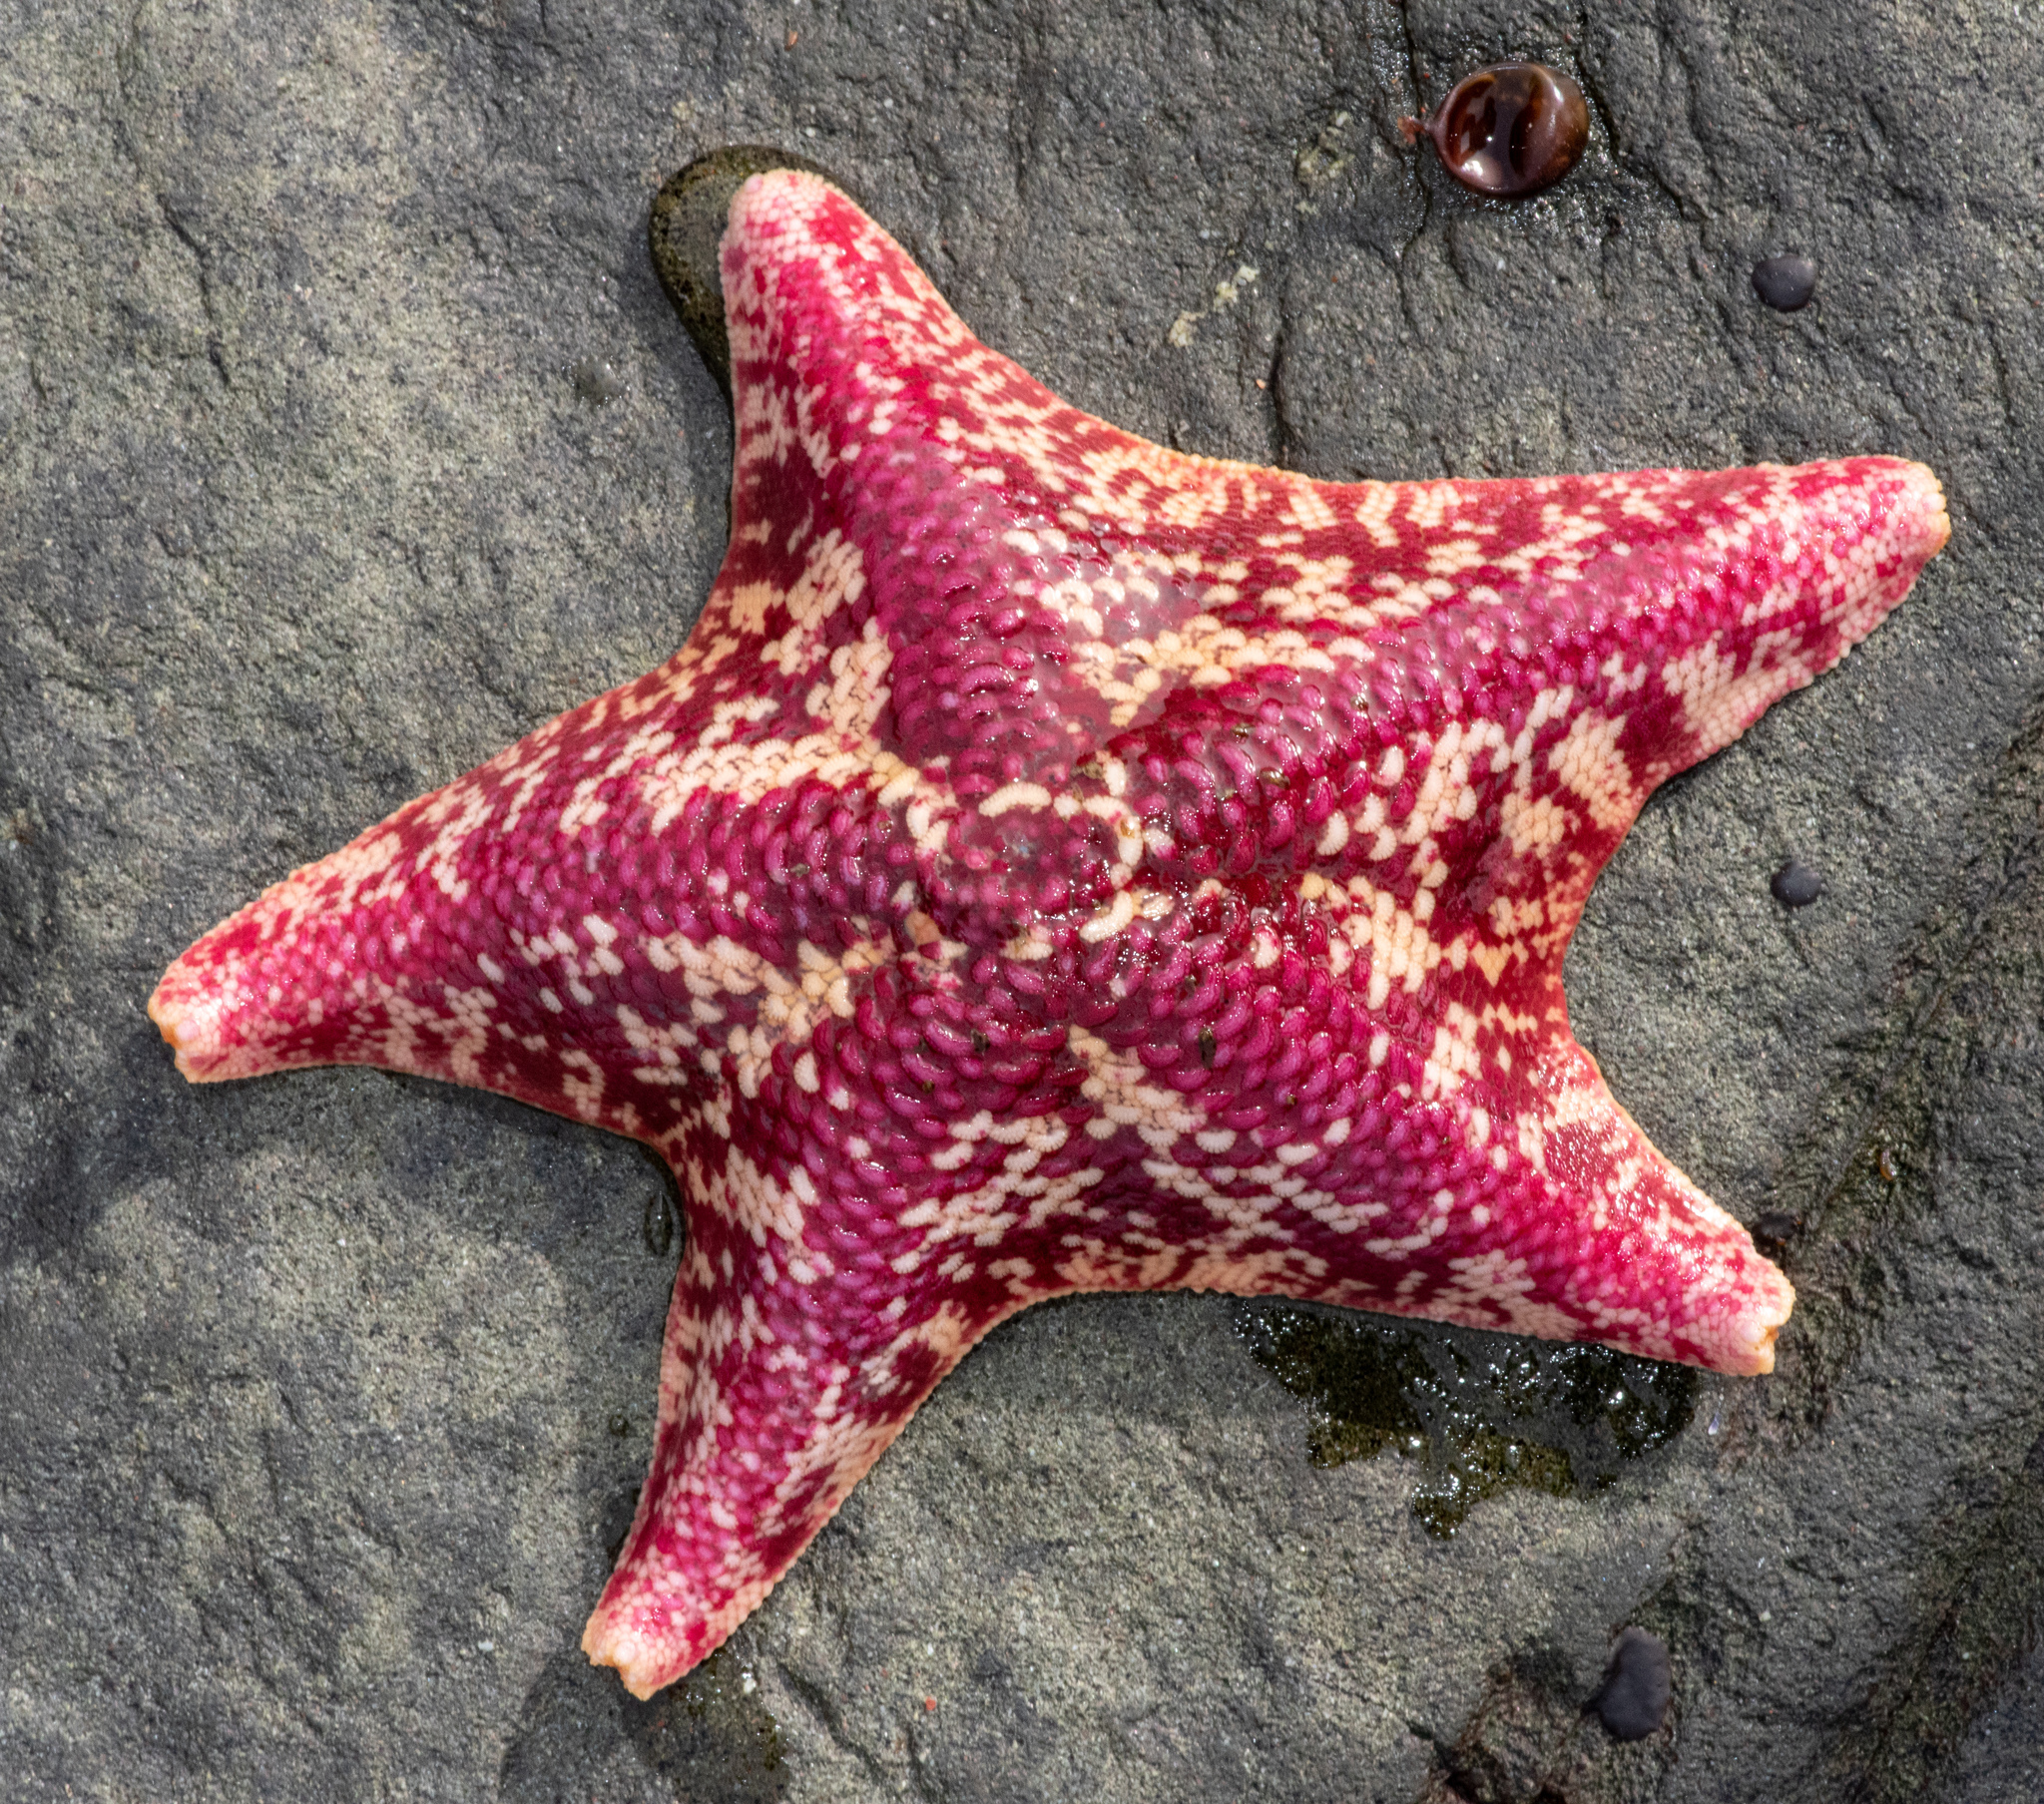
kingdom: Animalia
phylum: Echinodermata
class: Asteroidea
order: Valvatida
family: Asterinidae
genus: Patiria
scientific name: Patiria miniata
